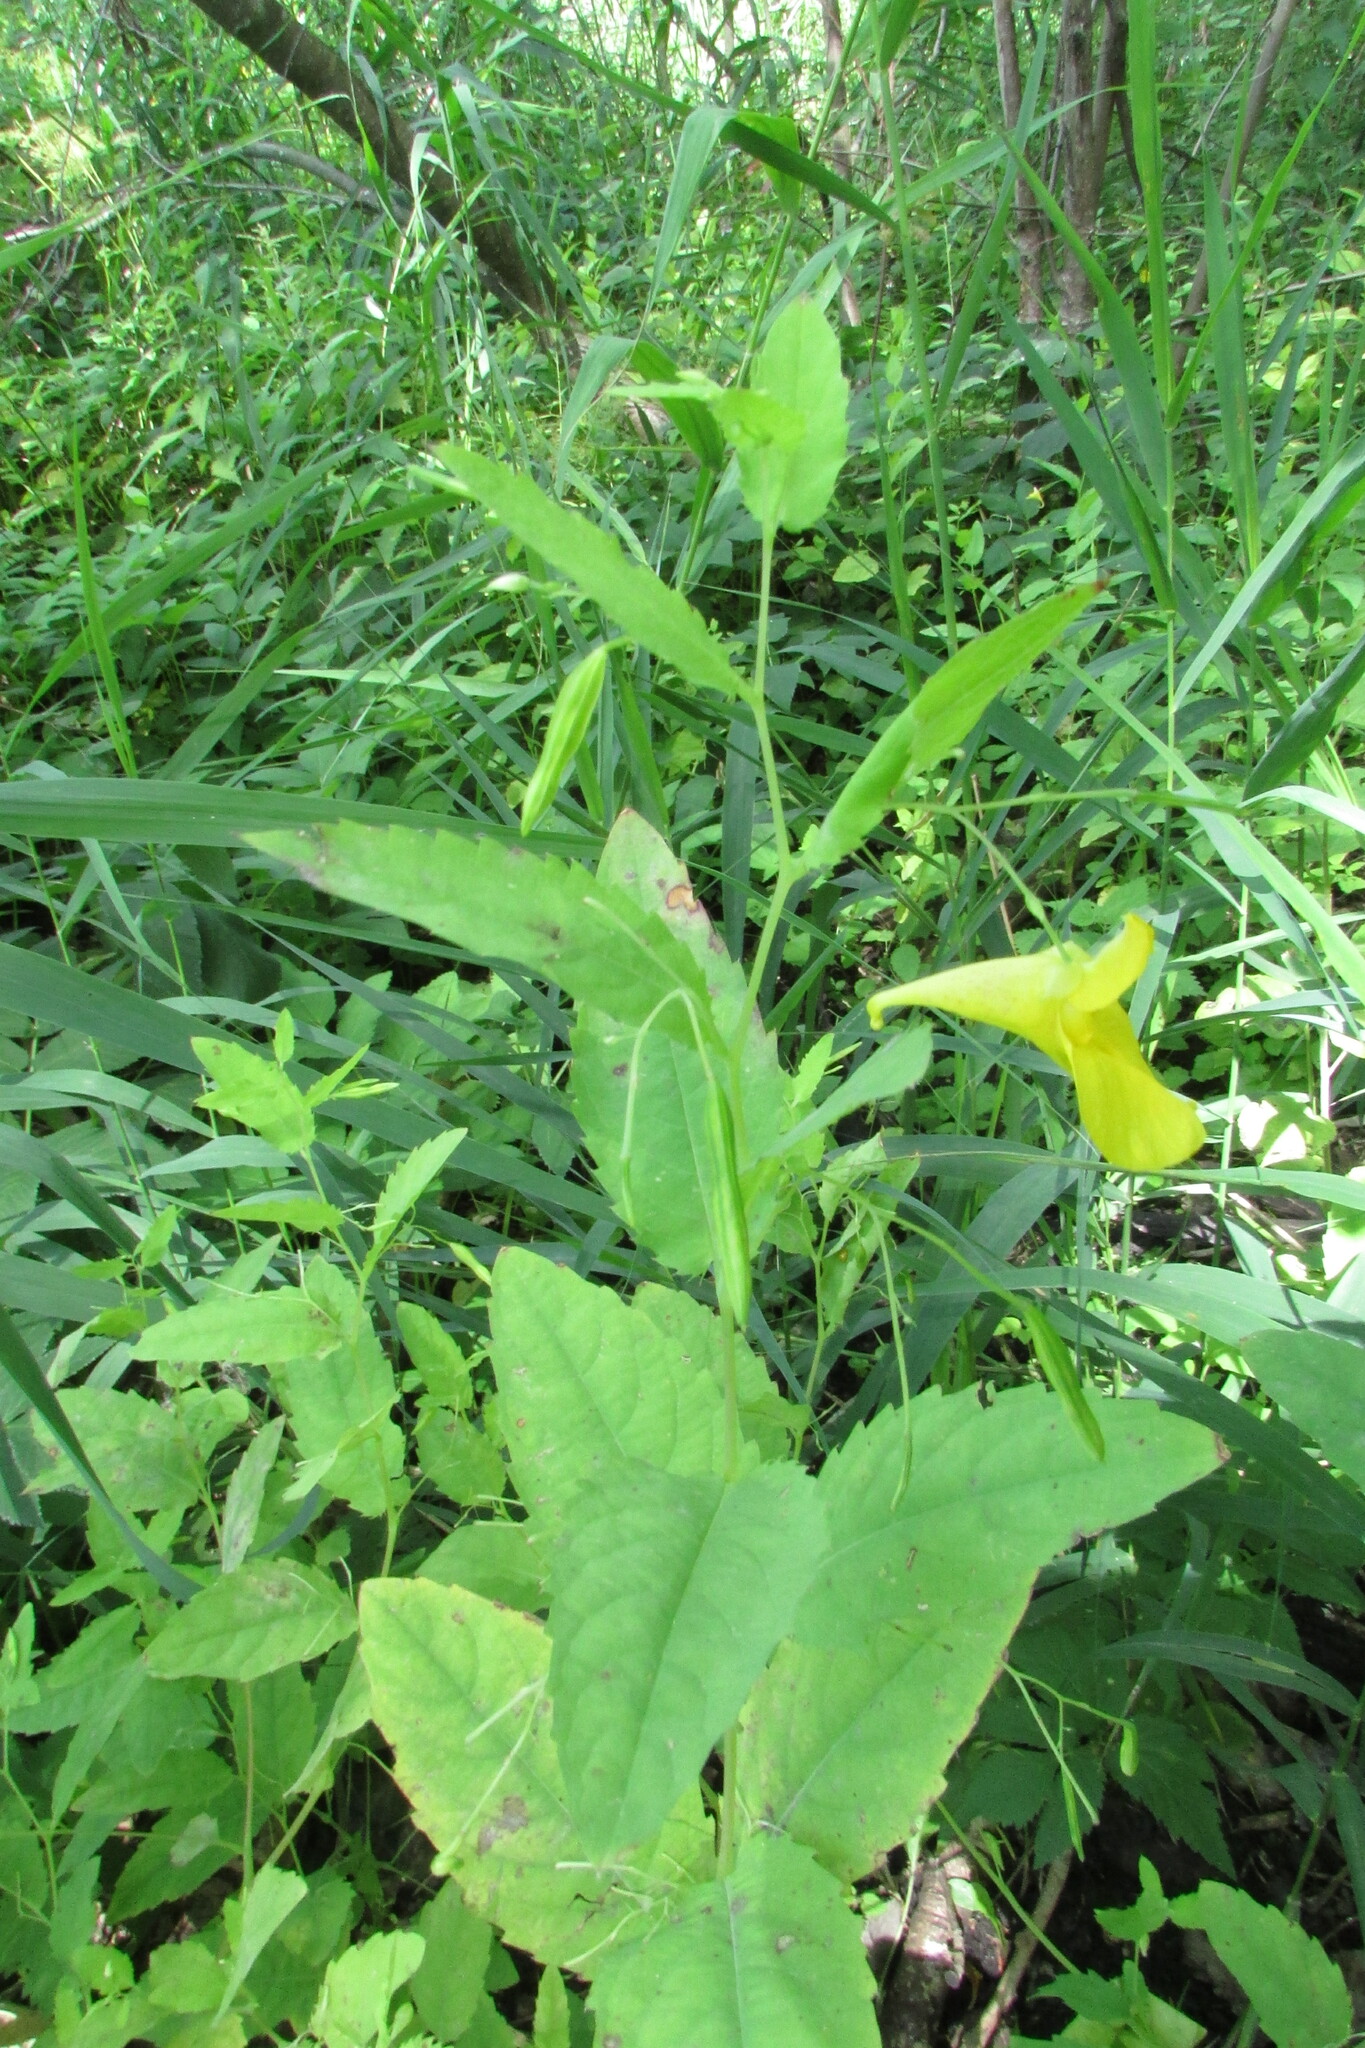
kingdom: Plantae
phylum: Tracheophyta
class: Magnoliopsida
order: Ericales
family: Balsaminaceae
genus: Impatiens
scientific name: Impatiens noli-tangere
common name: Touch-me-not balsam
